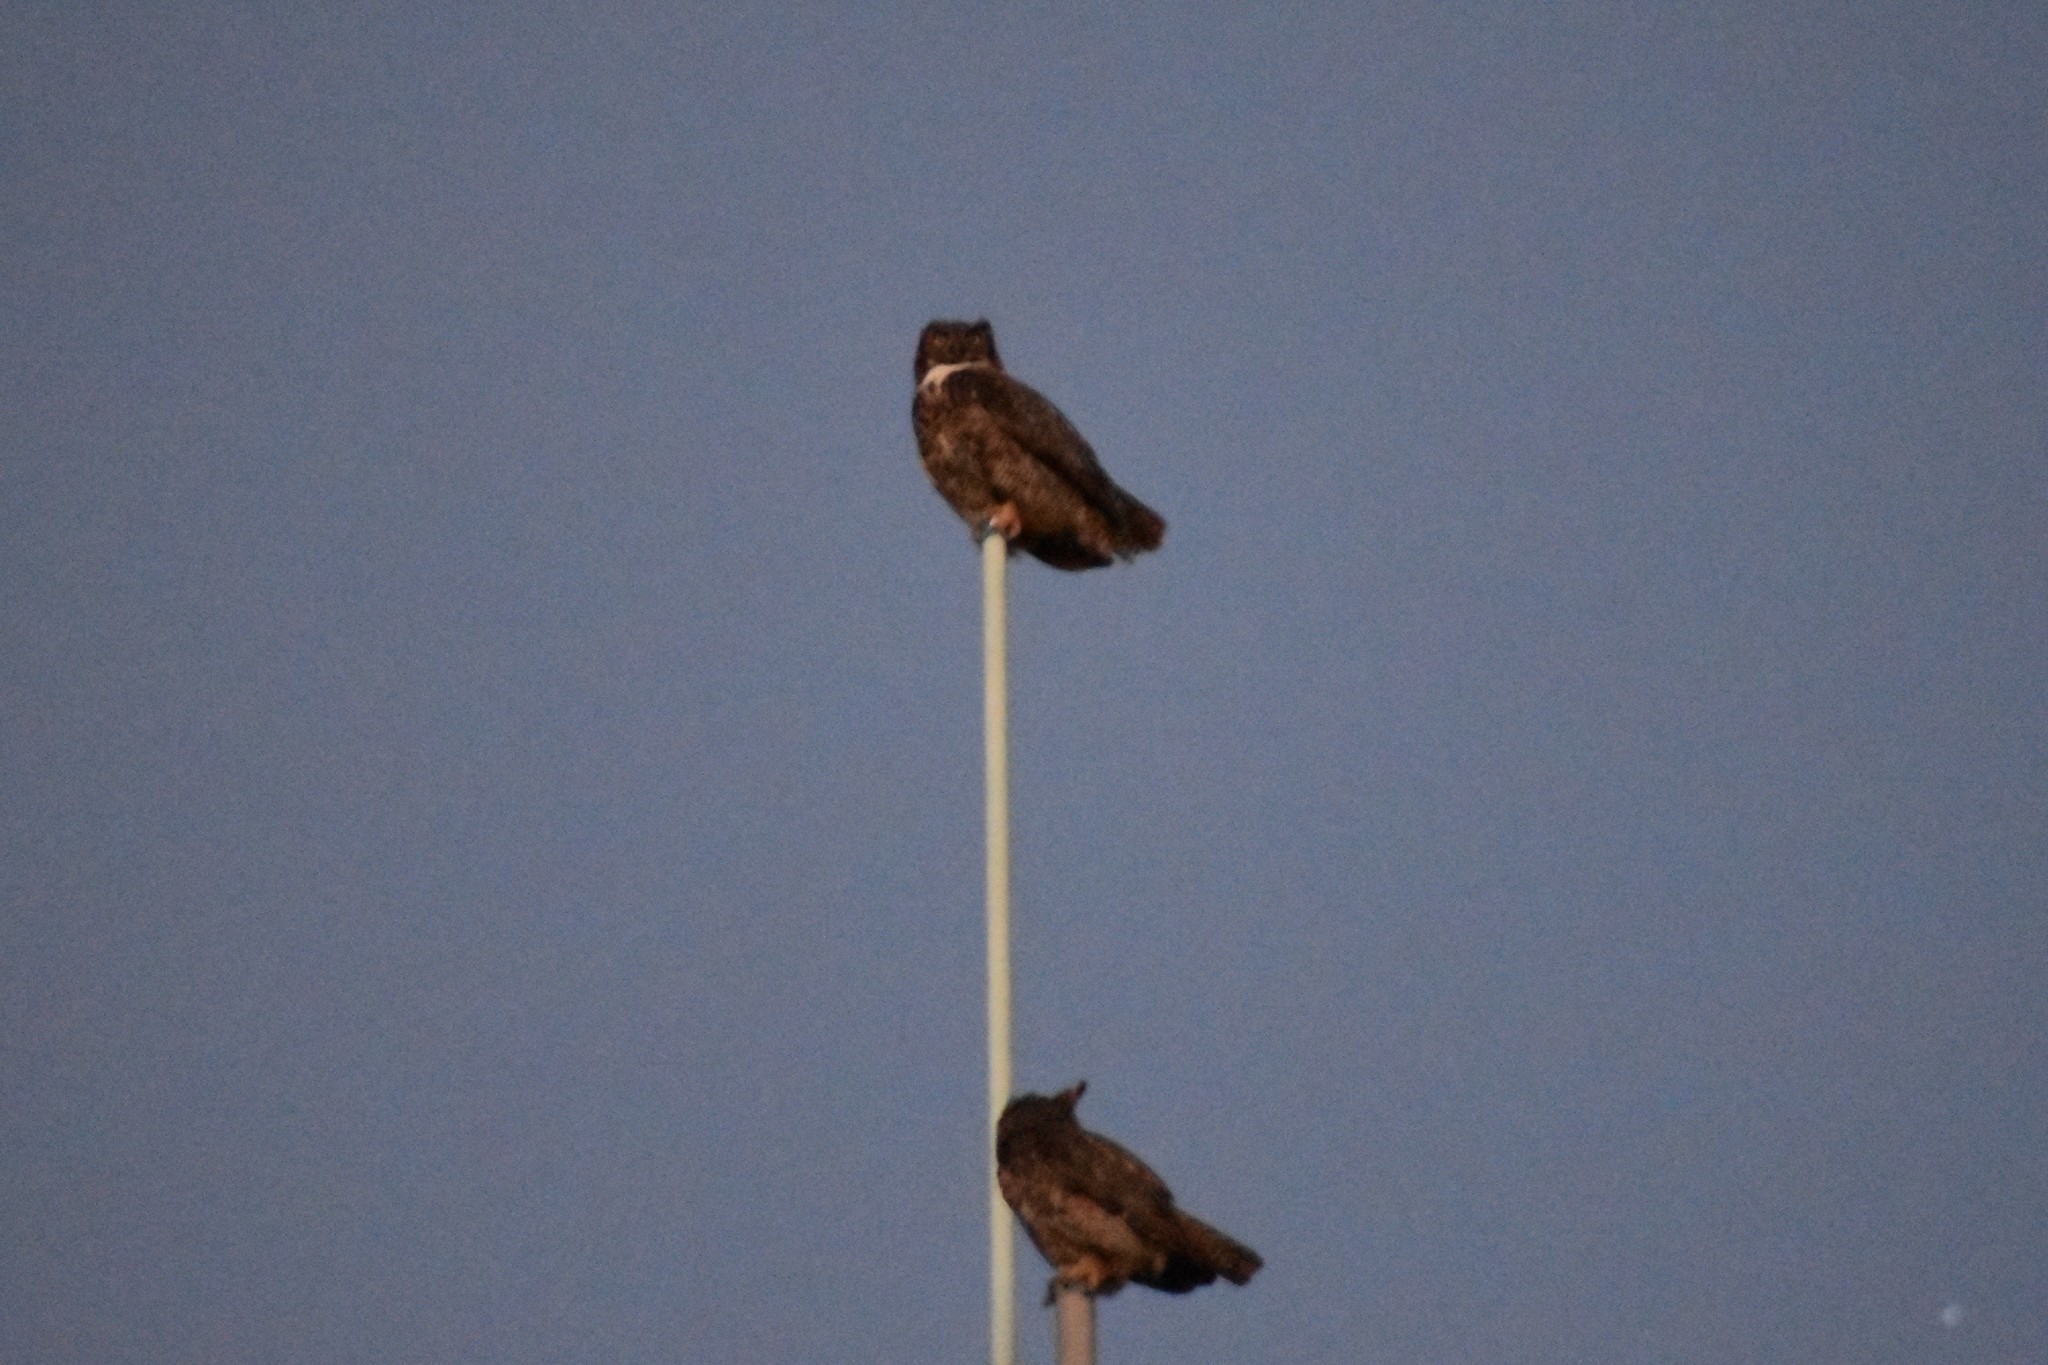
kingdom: Animalia
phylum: Chordata
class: Aves
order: Strigiformes
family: Strigidae
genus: Bubo
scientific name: Bubo virginianus
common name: Great horned owl
